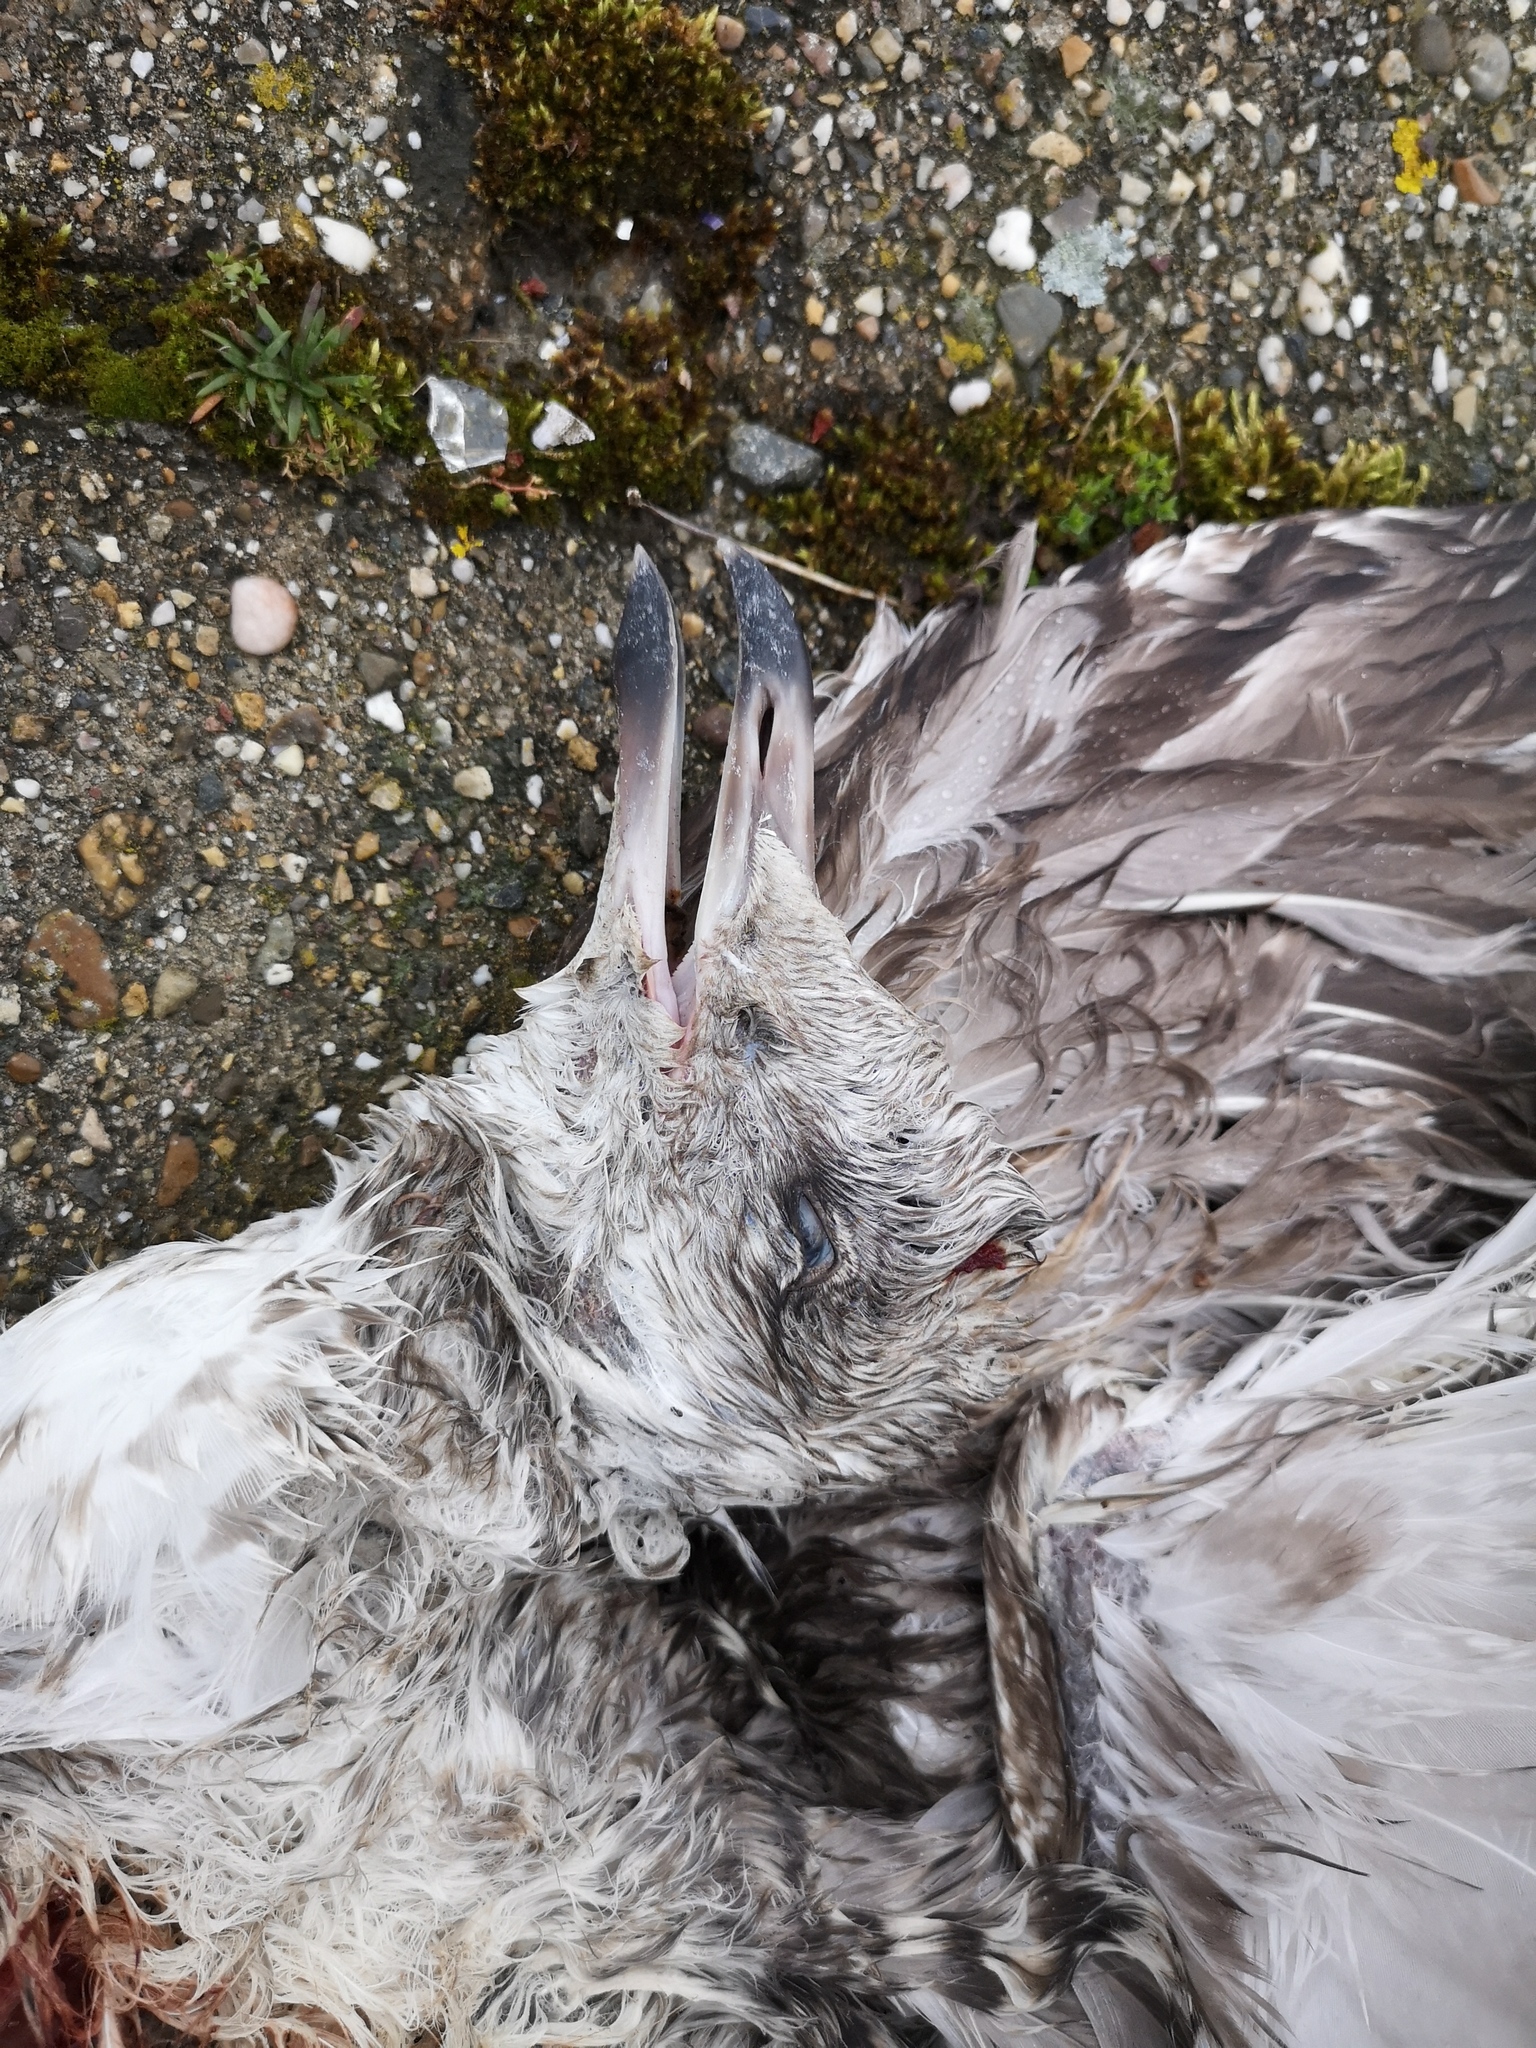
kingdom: Animalia
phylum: Chordata
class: Aves
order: Charadriiformes
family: Laridae
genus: Larus
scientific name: Larus argentatus
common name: Herring gull
